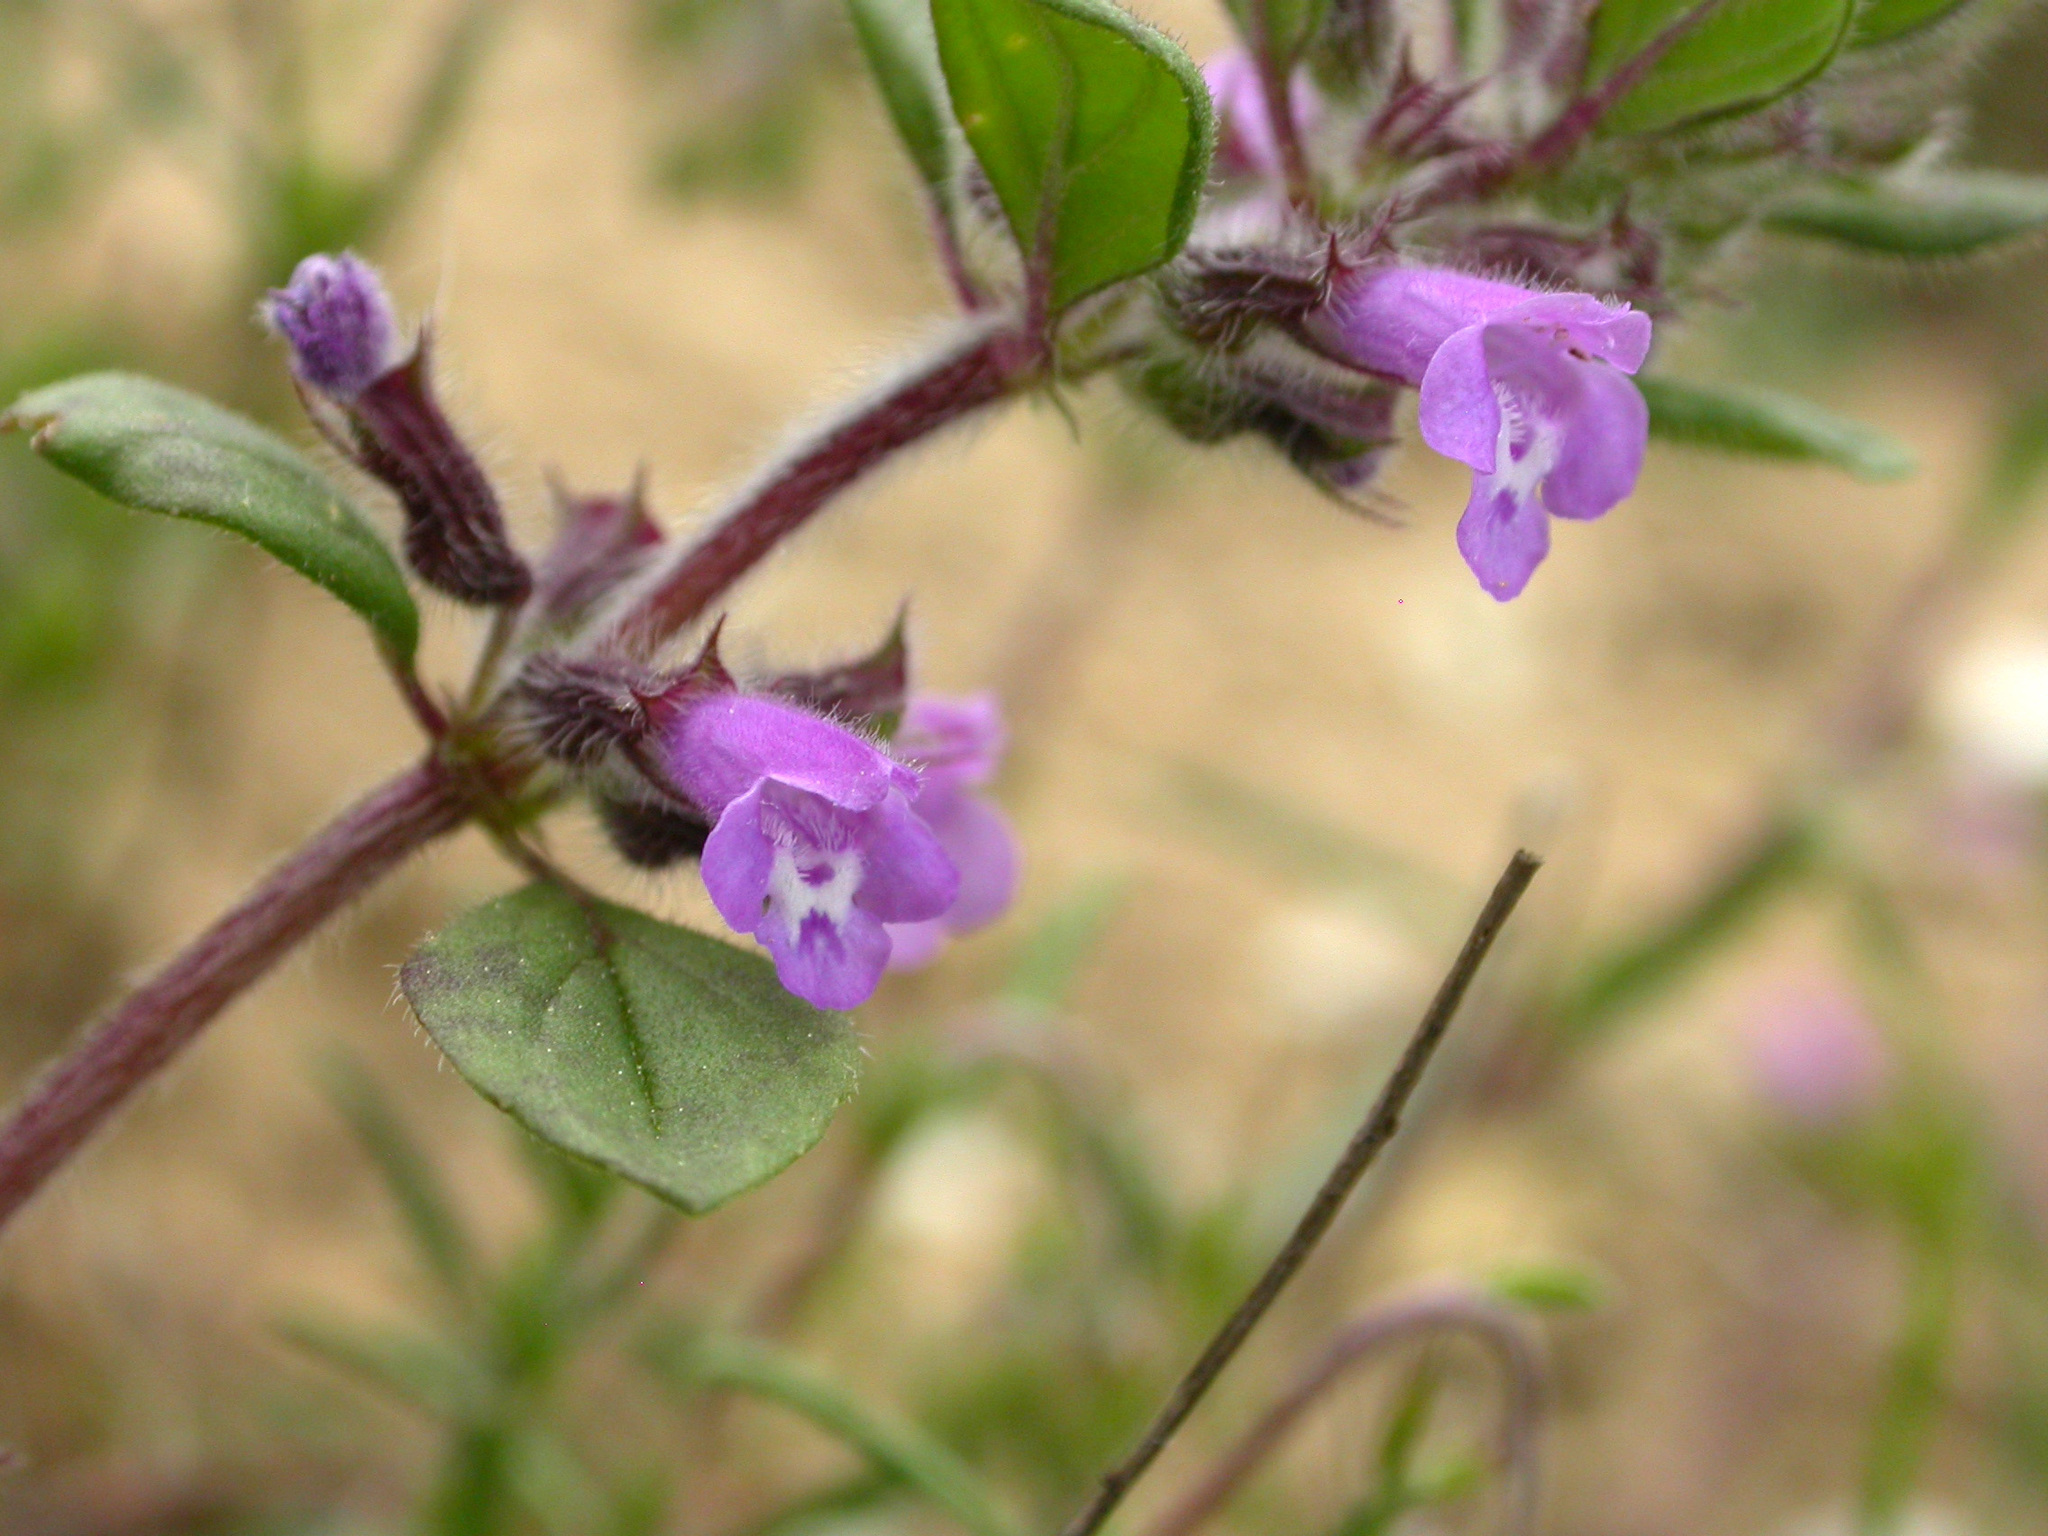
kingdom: Plantae
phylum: Tracheophyta
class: Magnoliopsida
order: Lamiales
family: Lamiaceae
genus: Clinopodium
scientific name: Clinopodium acinos
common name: Basil thyme
